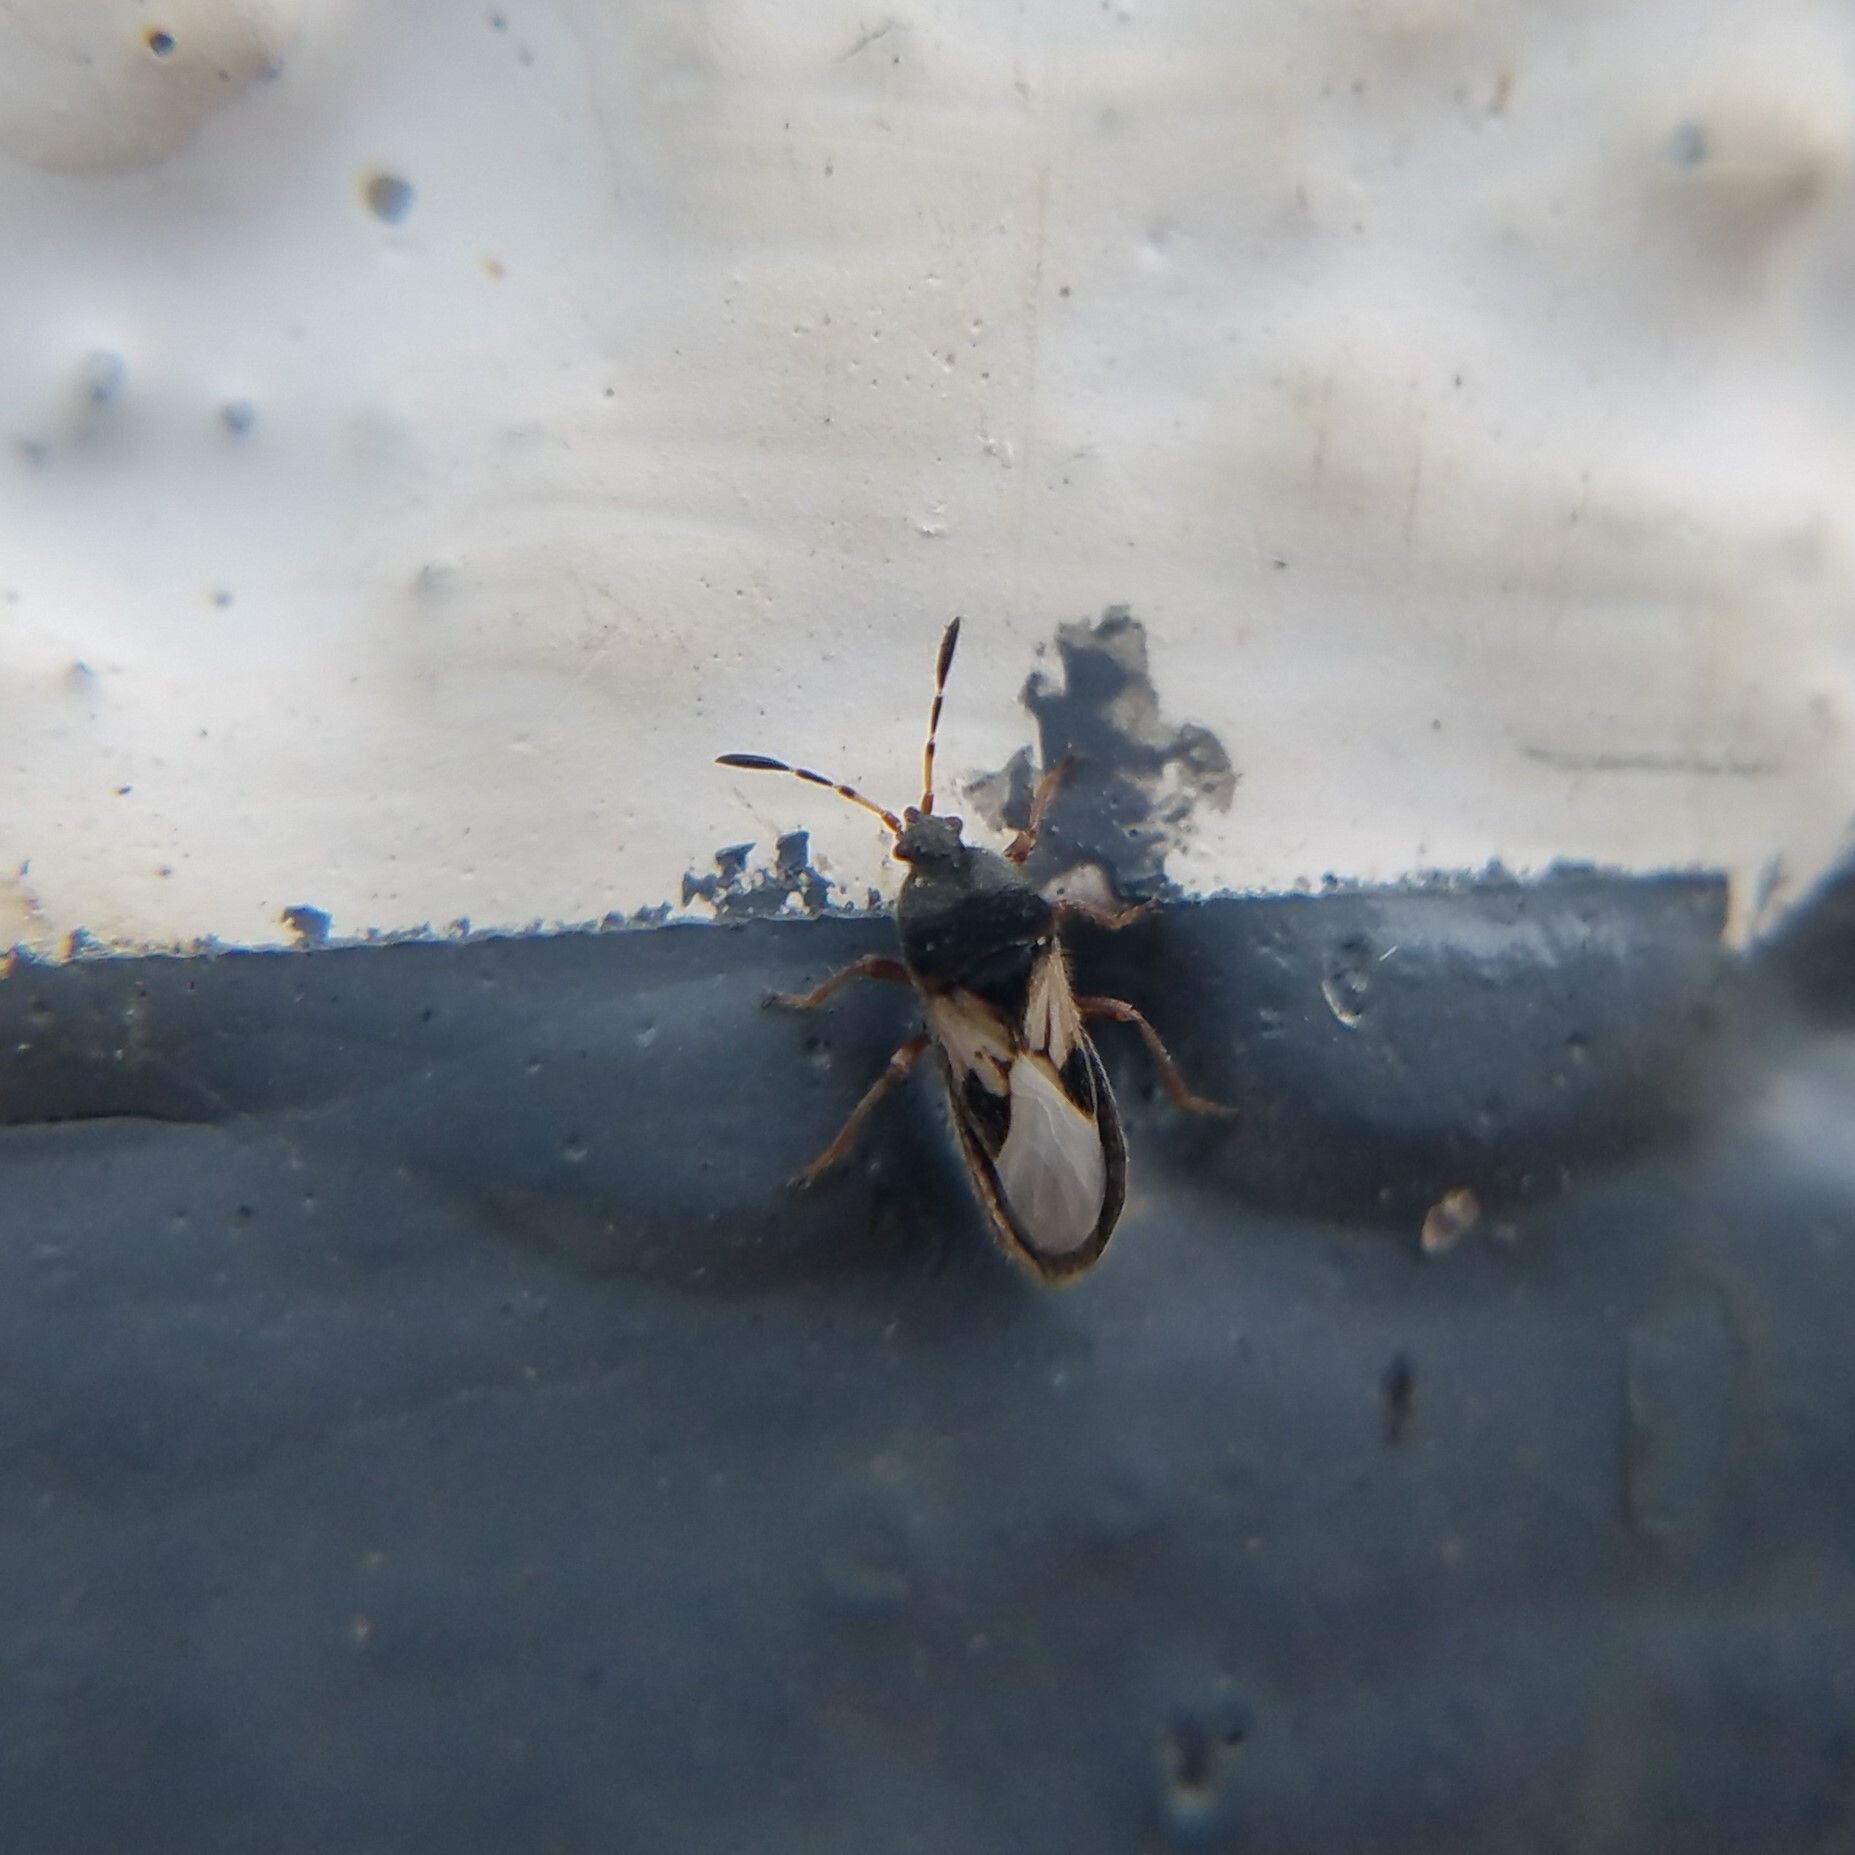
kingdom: Animalia
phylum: Arthropoda
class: Insecta
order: Hemiptera
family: Blissidae
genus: Blissus
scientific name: Blissus insularis
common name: Southern chinch bug
